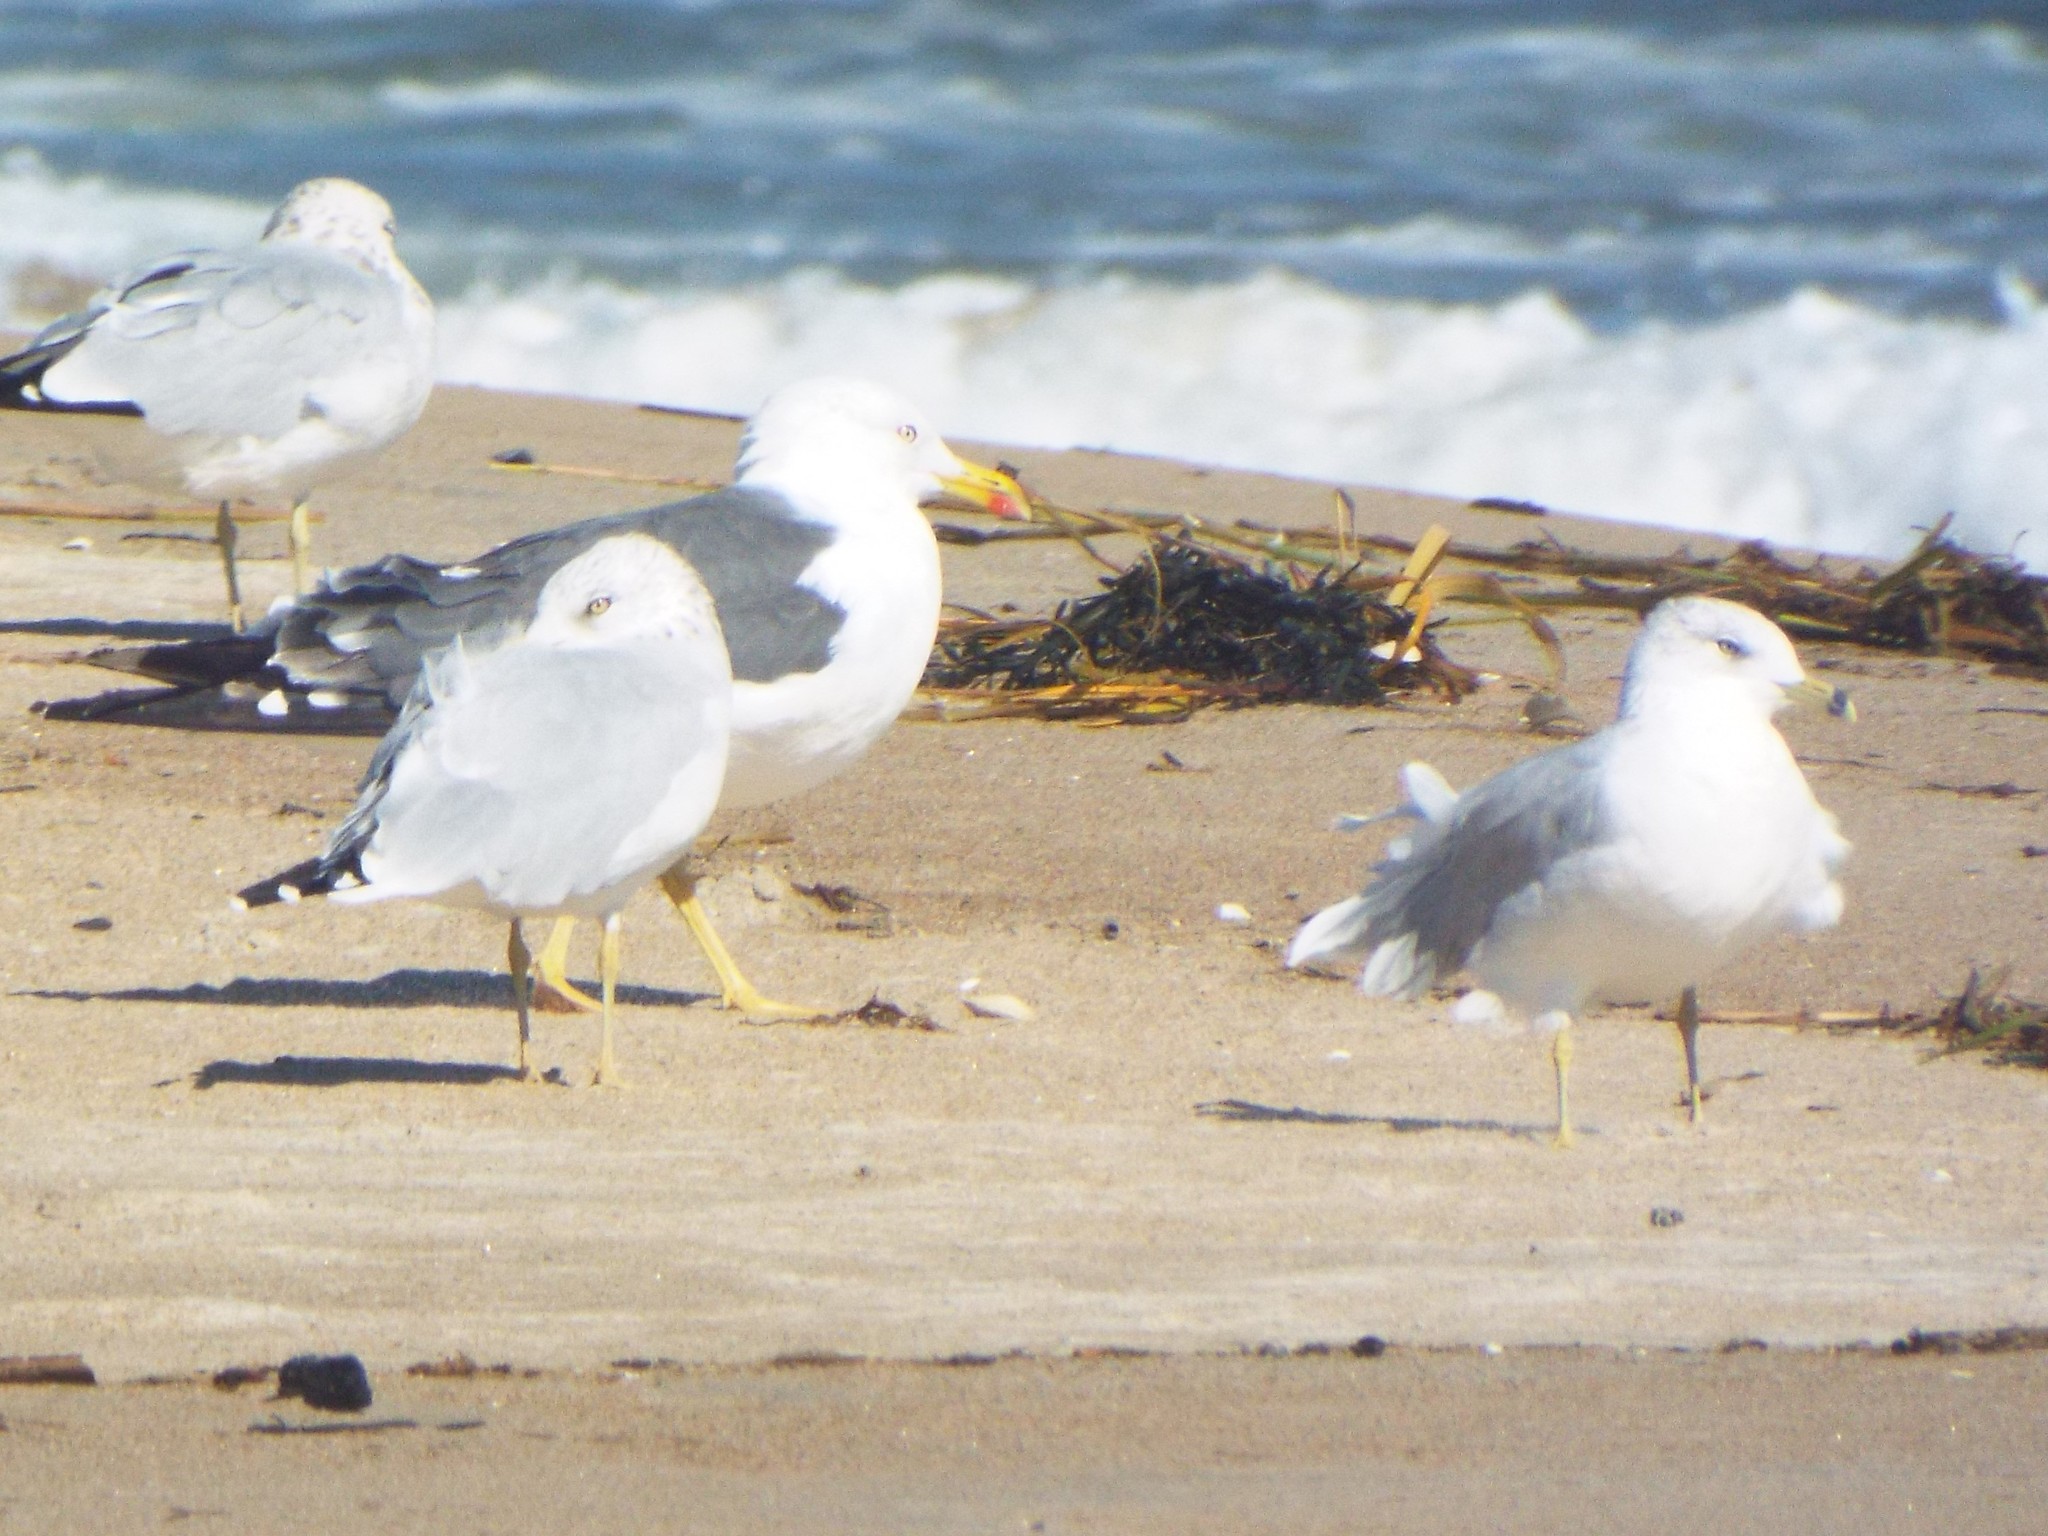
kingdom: Animalia
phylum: Chordata
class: Aves
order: Charadriiformes
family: Laridae
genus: Larus
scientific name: Larus delawarensis
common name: Ring-billed gull
